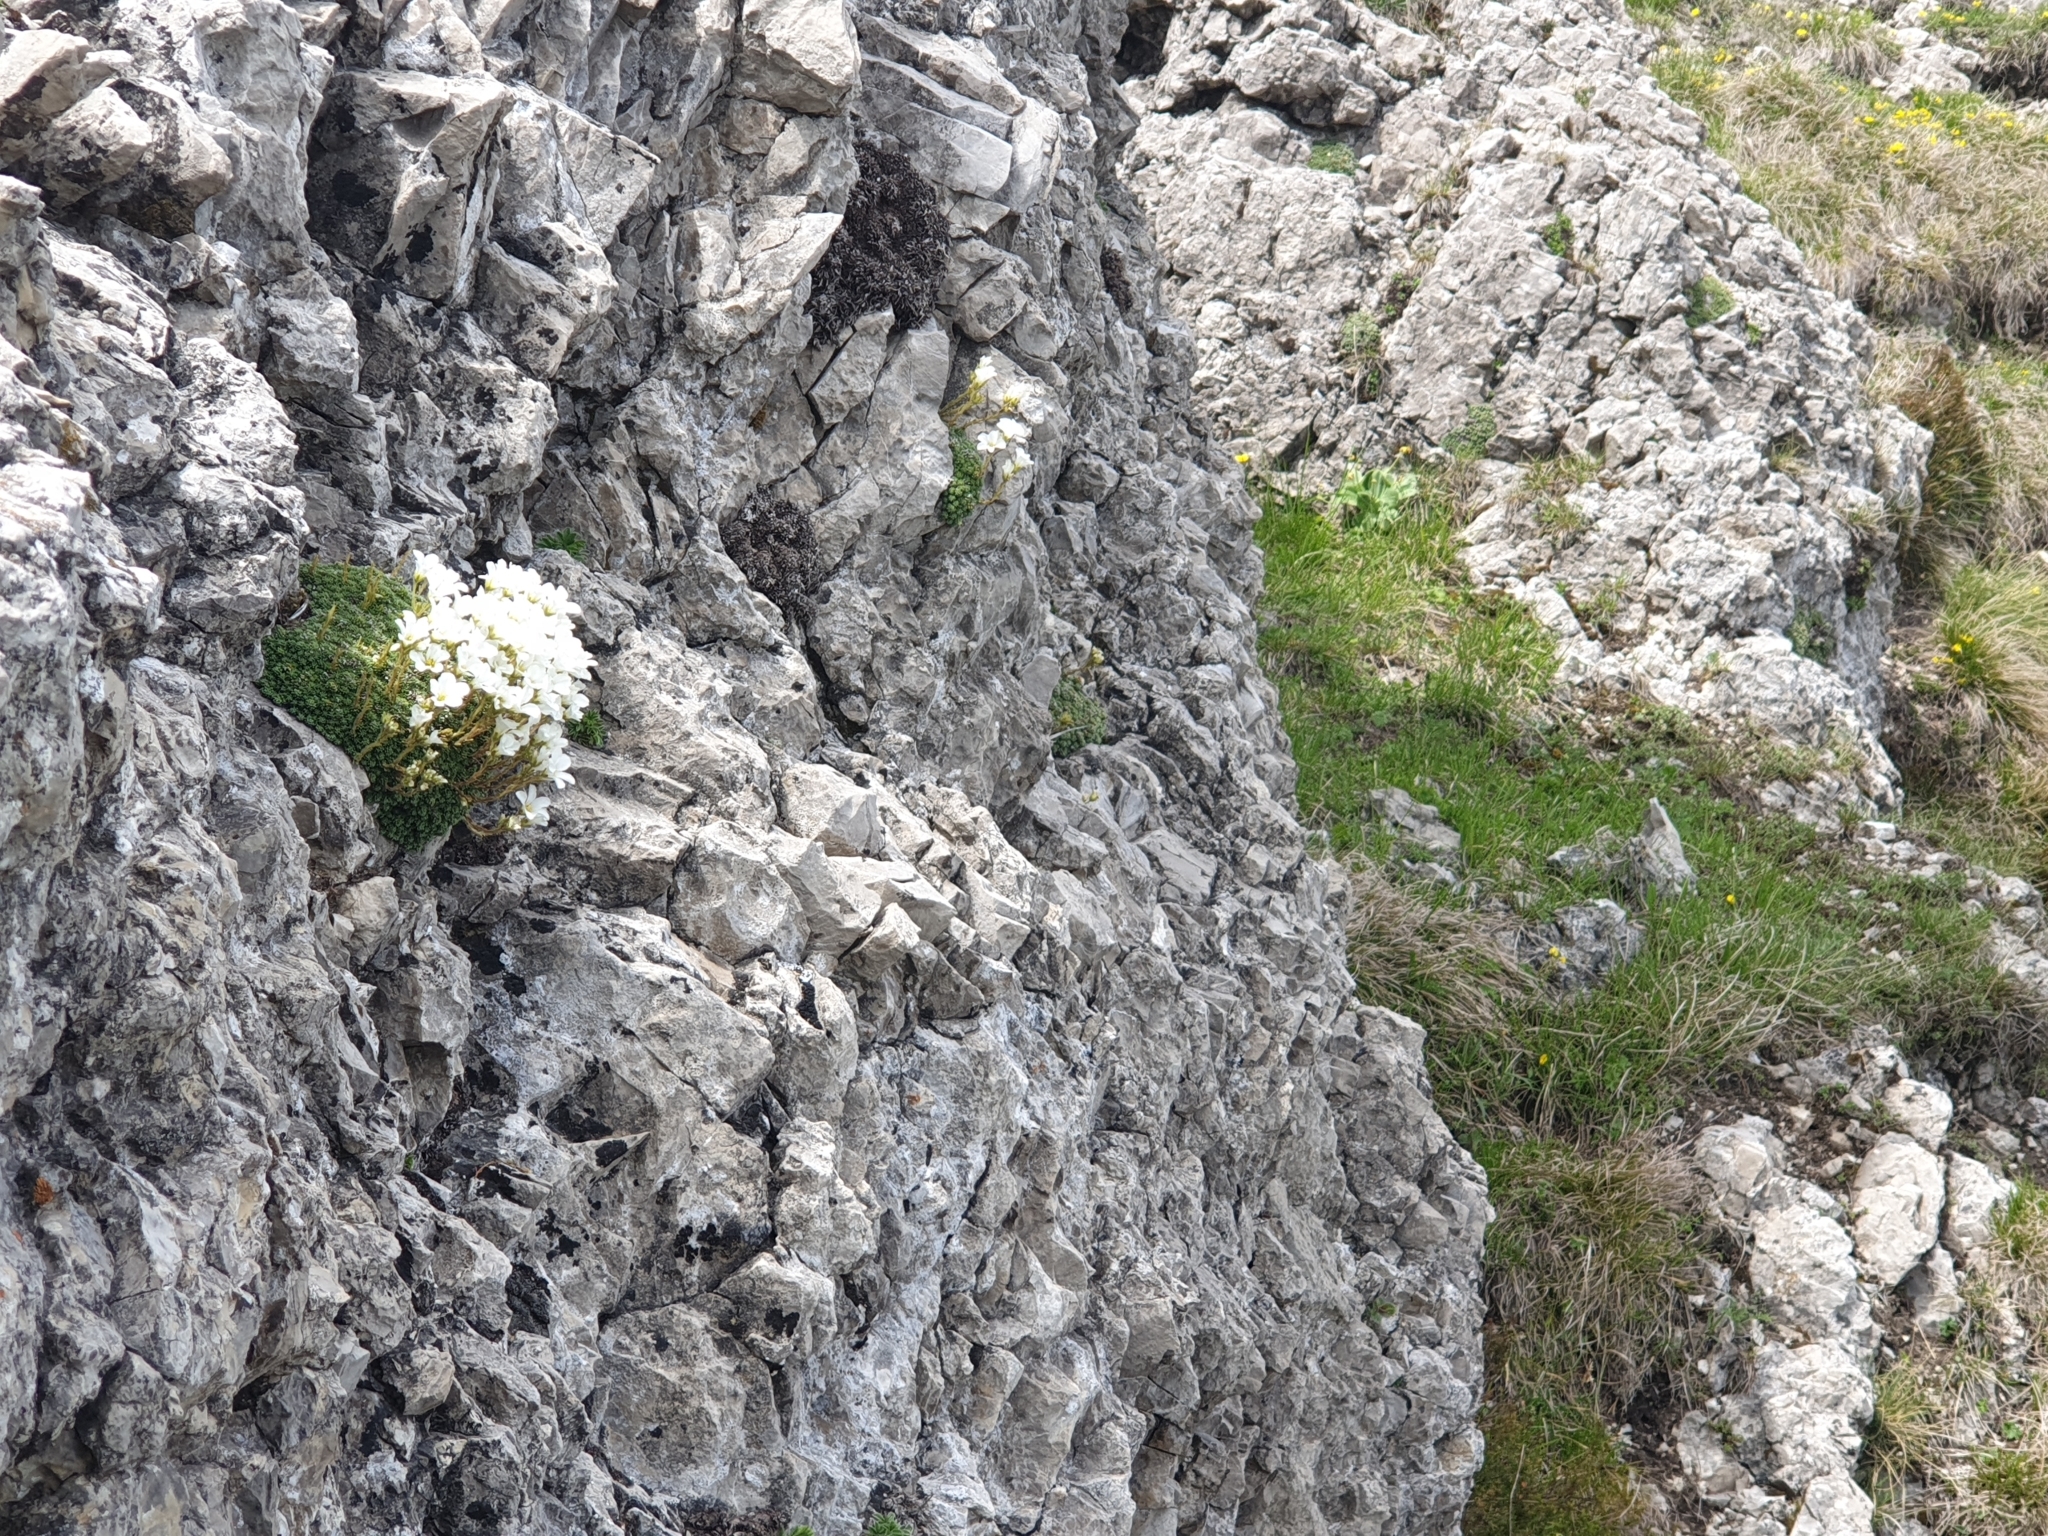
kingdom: Plantae
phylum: Tracheophyta
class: Magnoliopsida
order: Saxifragales
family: Saxifragaceae
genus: Saxifraga
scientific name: Saxifraga tombeanensis
